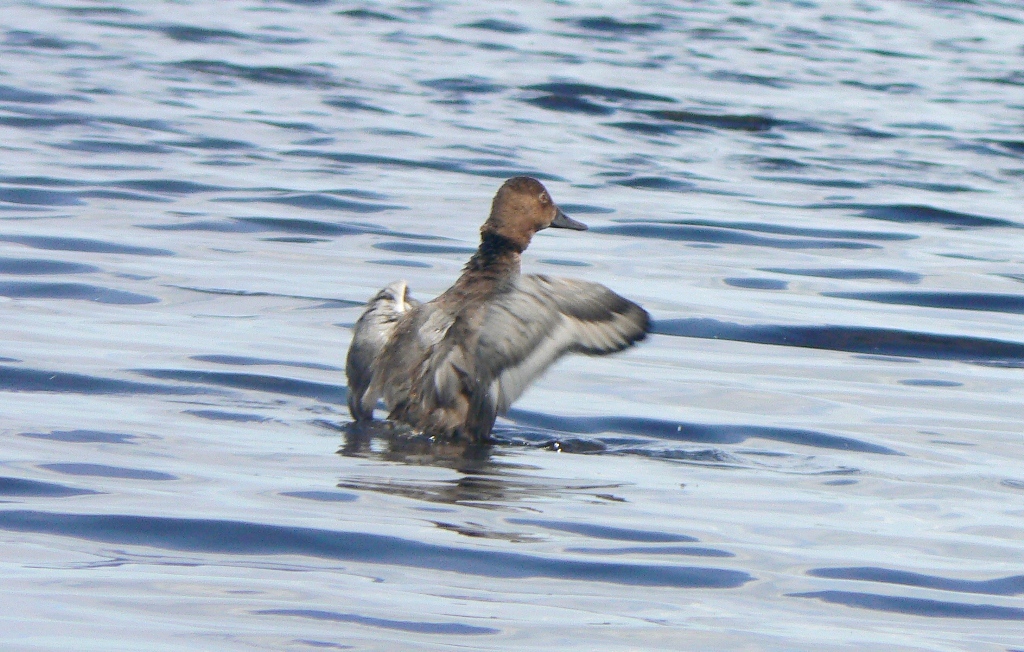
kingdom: Animalia
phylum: Chordata
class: Aves
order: Anseriformes
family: Anatidae
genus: Aythya
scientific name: Aythya ferina
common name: Common pochard
